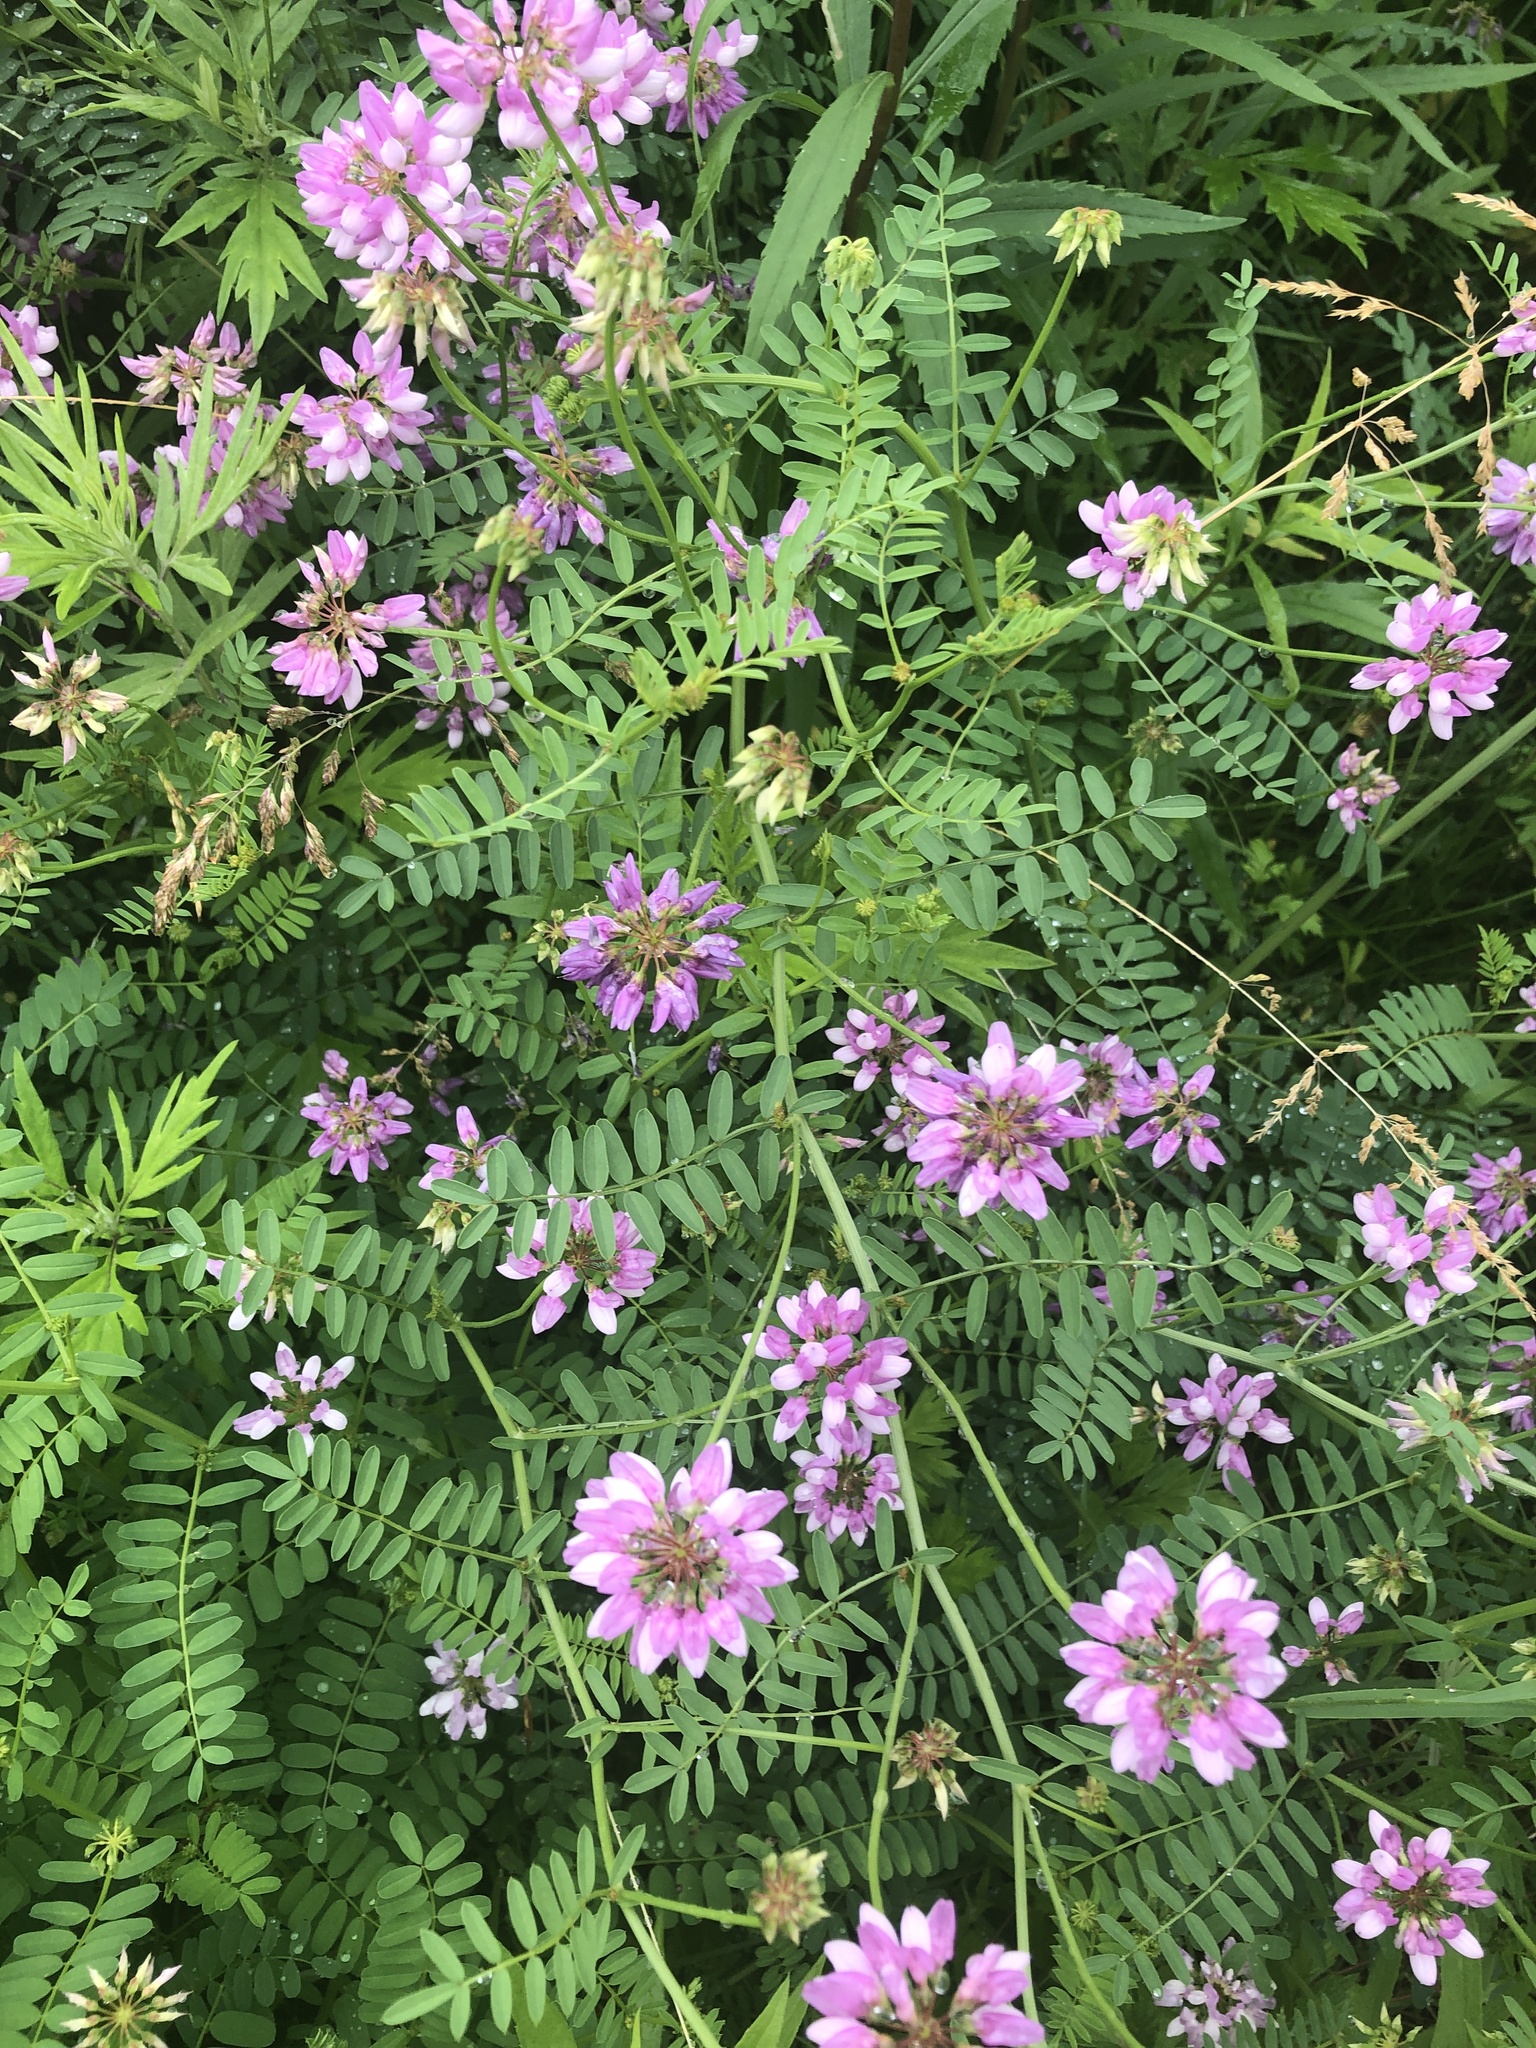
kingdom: Plantae
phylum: Tracheophyta
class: Magnoliopsida
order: Fabales
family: Fabaceae
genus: Coronilla
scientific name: Coronilla varia
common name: Crownvetch
